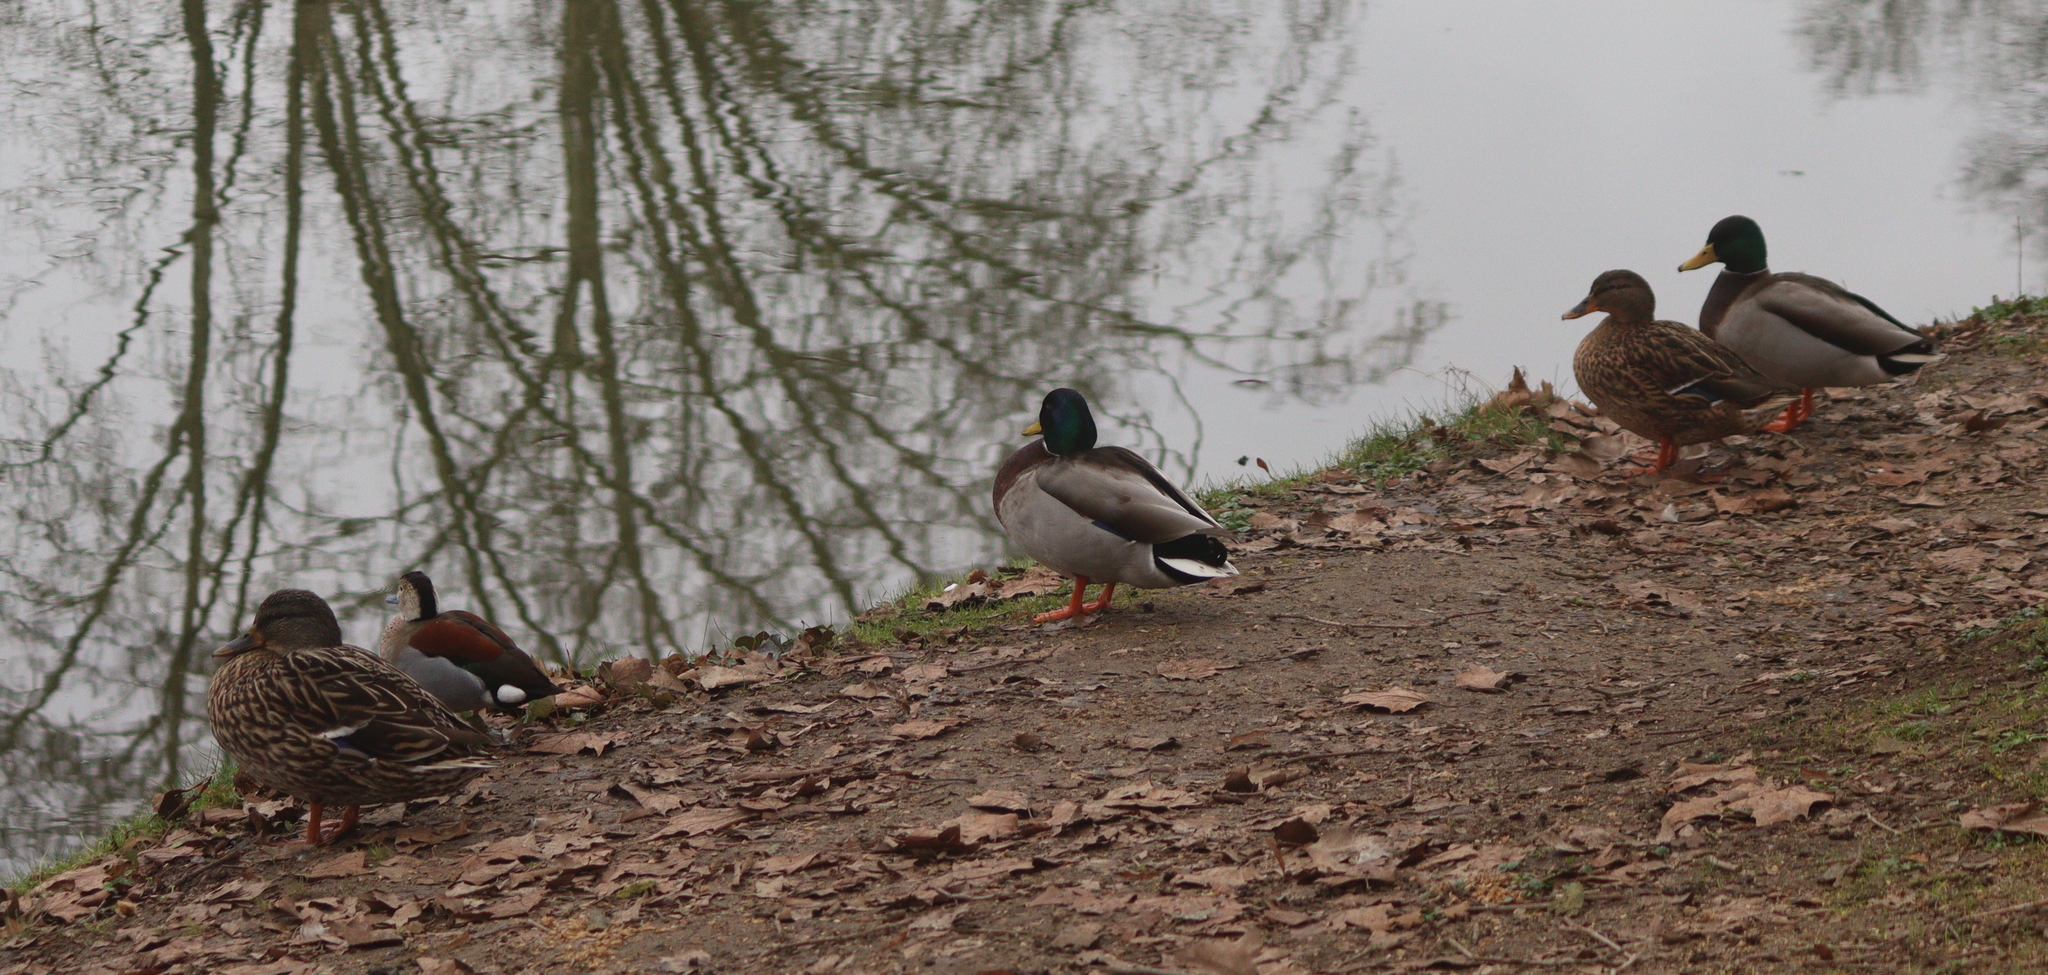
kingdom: Animalia
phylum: Chordata
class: Aves
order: Anseriformes
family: Anatidae
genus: Callonetta
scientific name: Callonetta leucophrys
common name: Ringed teal
